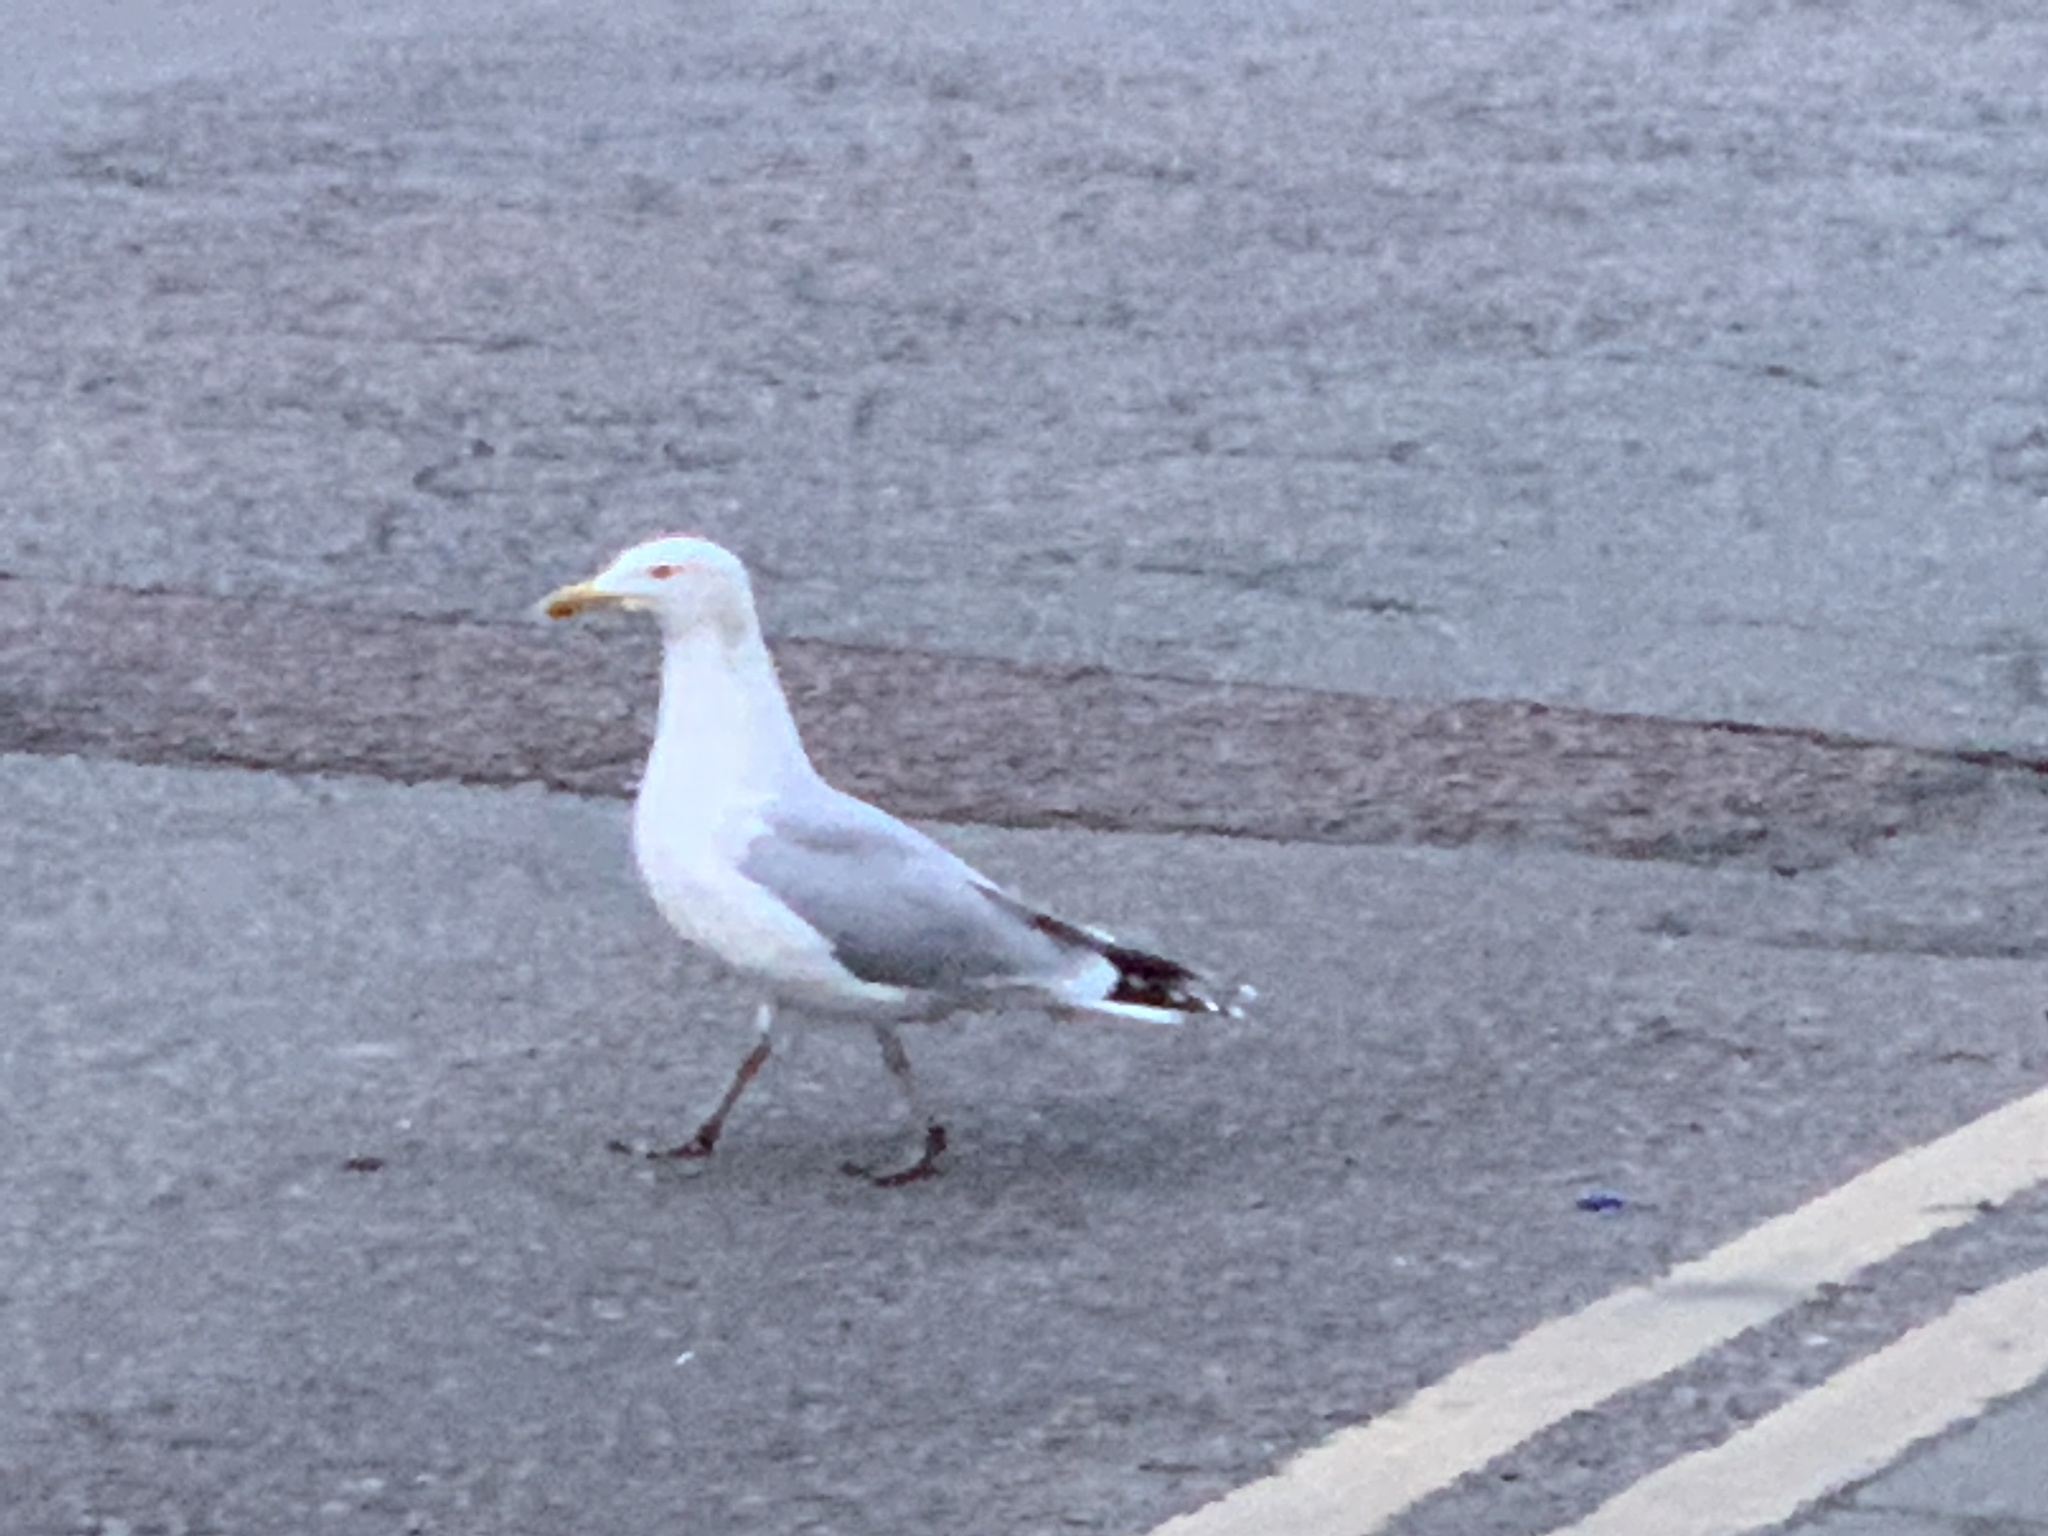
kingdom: Animalia
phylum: Chordata
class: Aves
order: Charadriiformes
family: Laridae
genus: Larus
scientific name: Larus argentatus
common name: Herring gull
